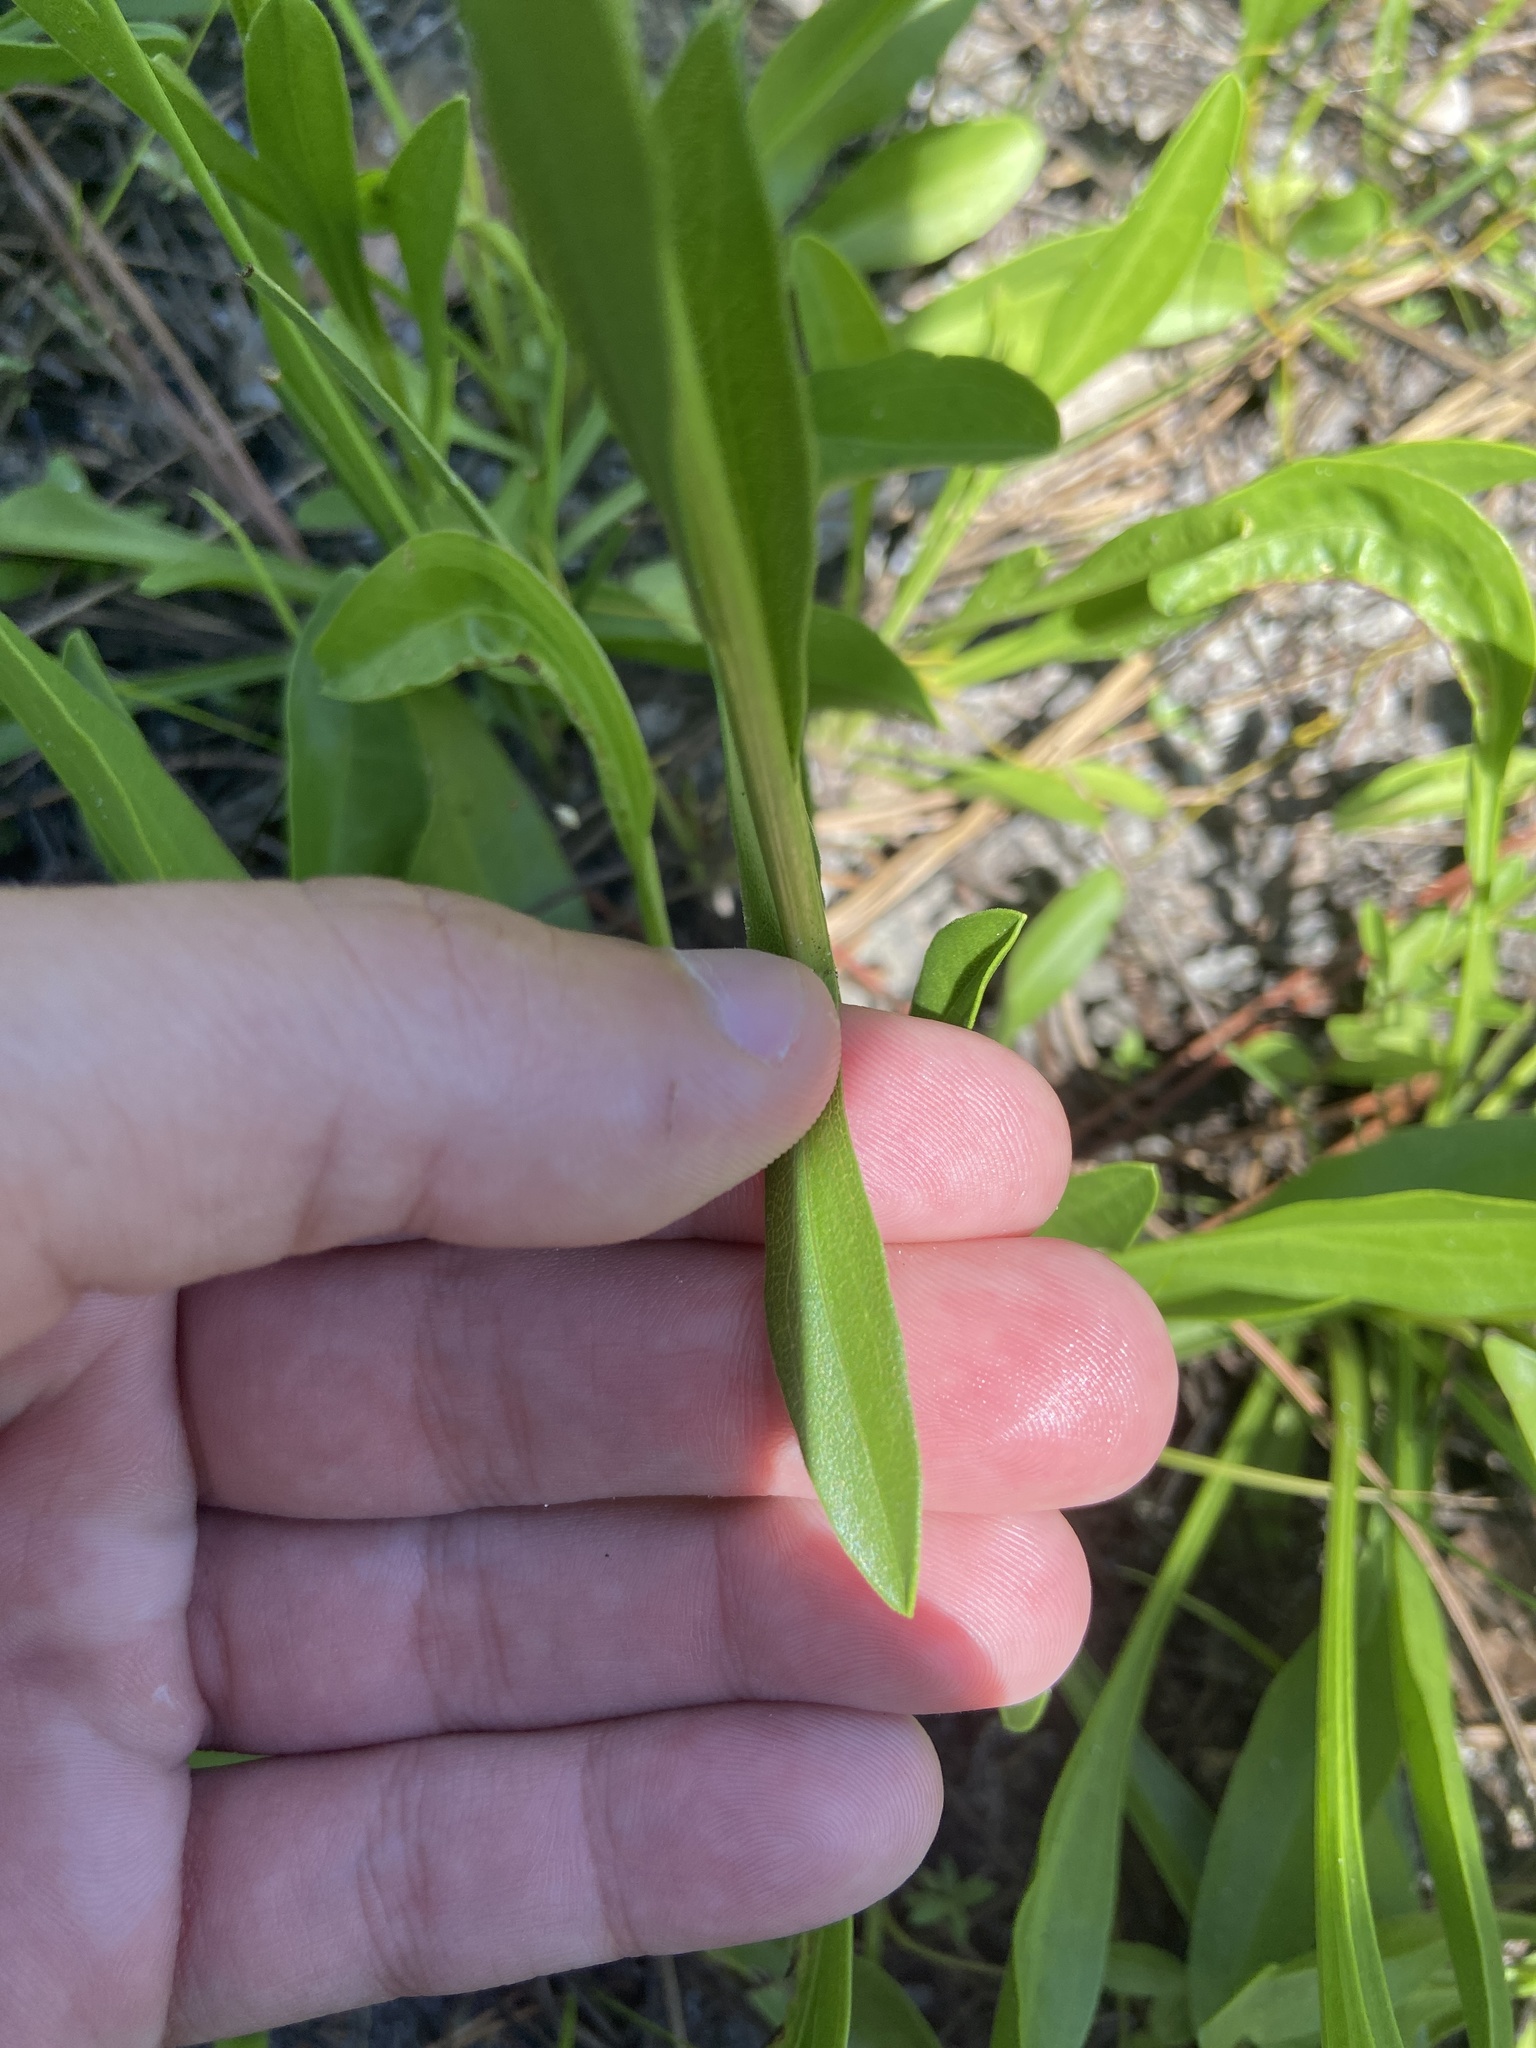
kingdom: Plantae
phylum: Tracheophyta
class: Magnoliopsida
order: Asterales
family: Asteraceae
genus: Solidago
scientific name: Solidago virgata
